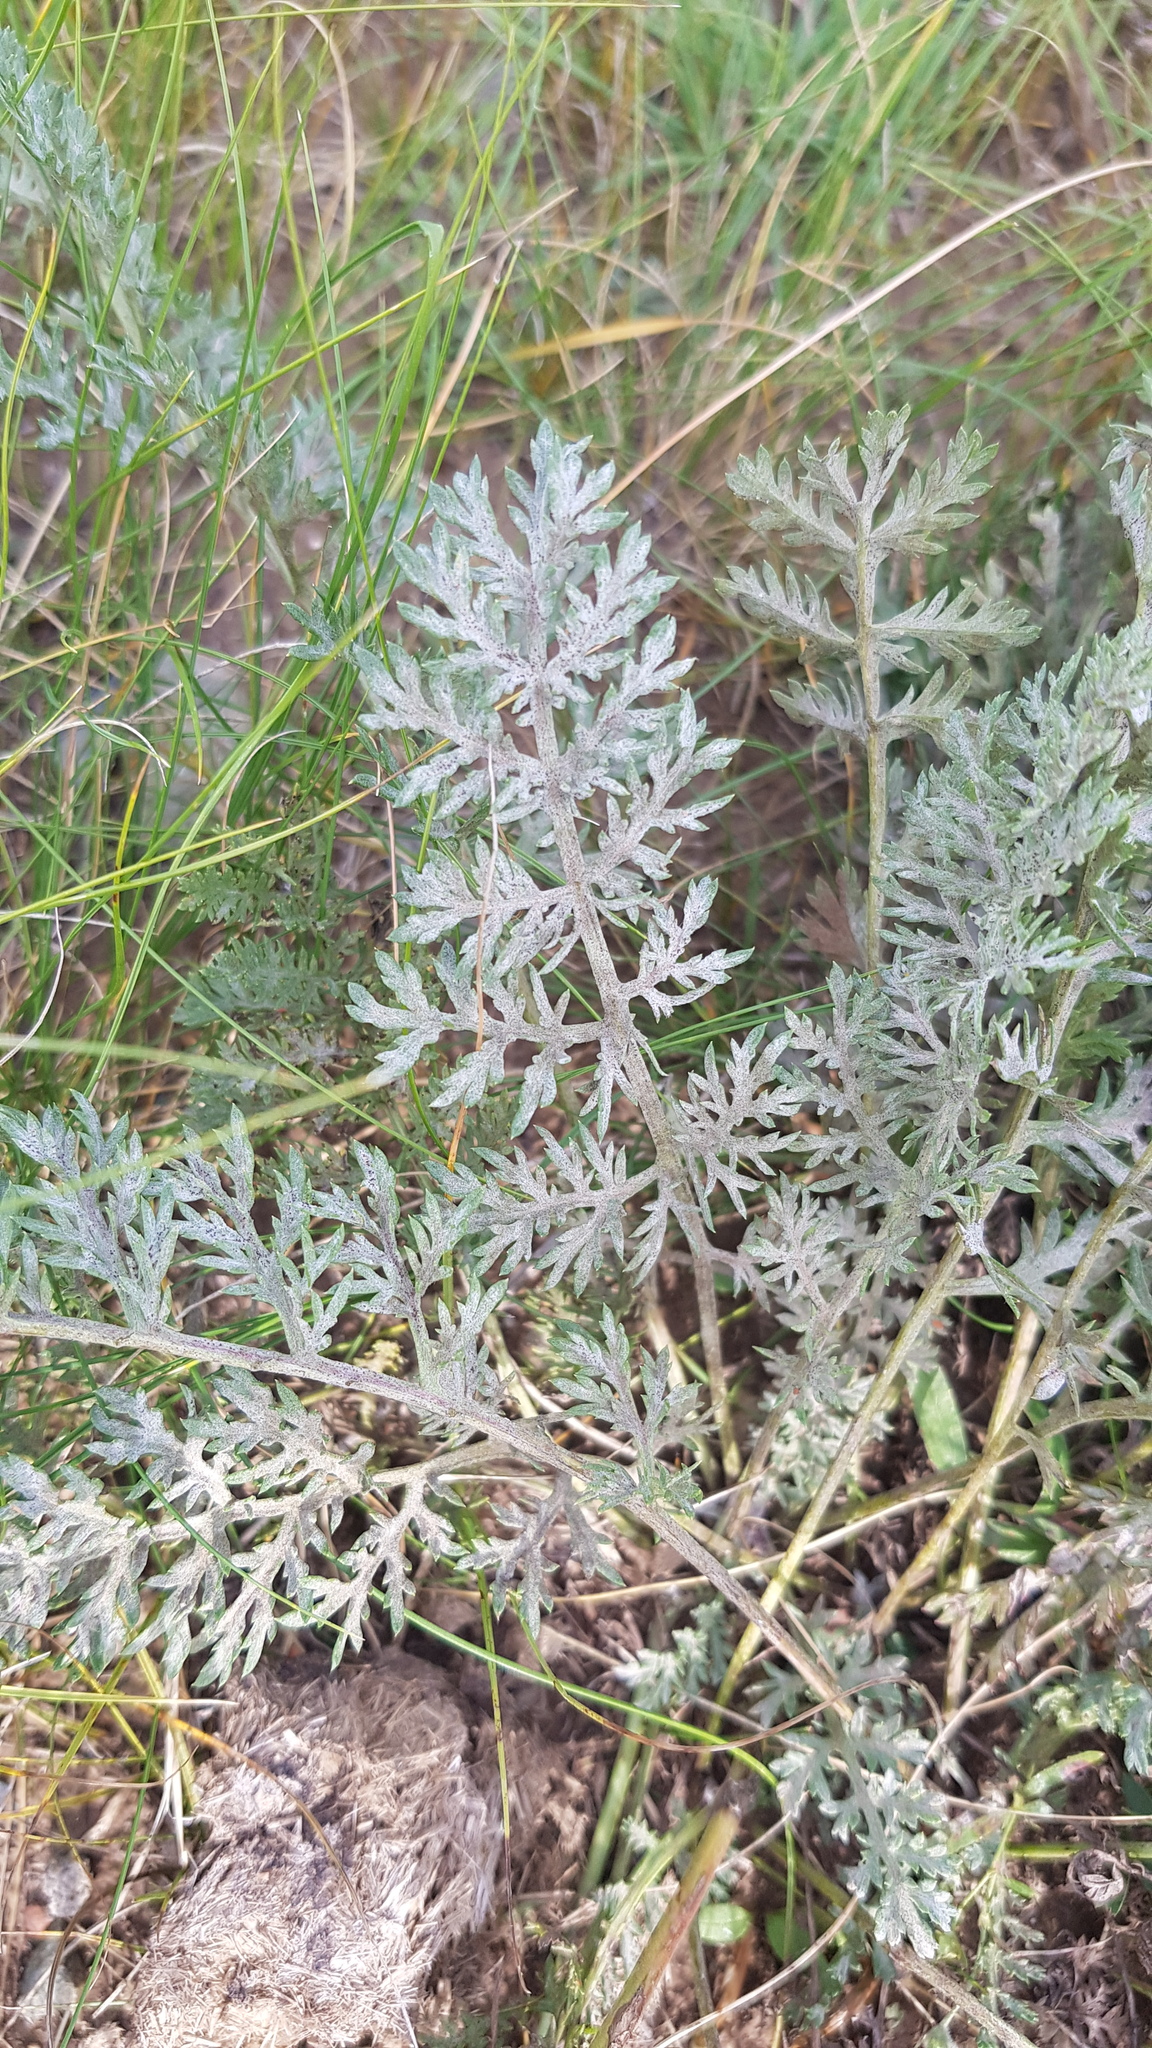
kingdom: Plantae
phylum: Tracheophyta
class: Magnoliopsida
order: Asterales
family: Asteraceae
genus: Artemisia
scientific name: Artemisia sieversiana
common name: Sieversian wormwood
